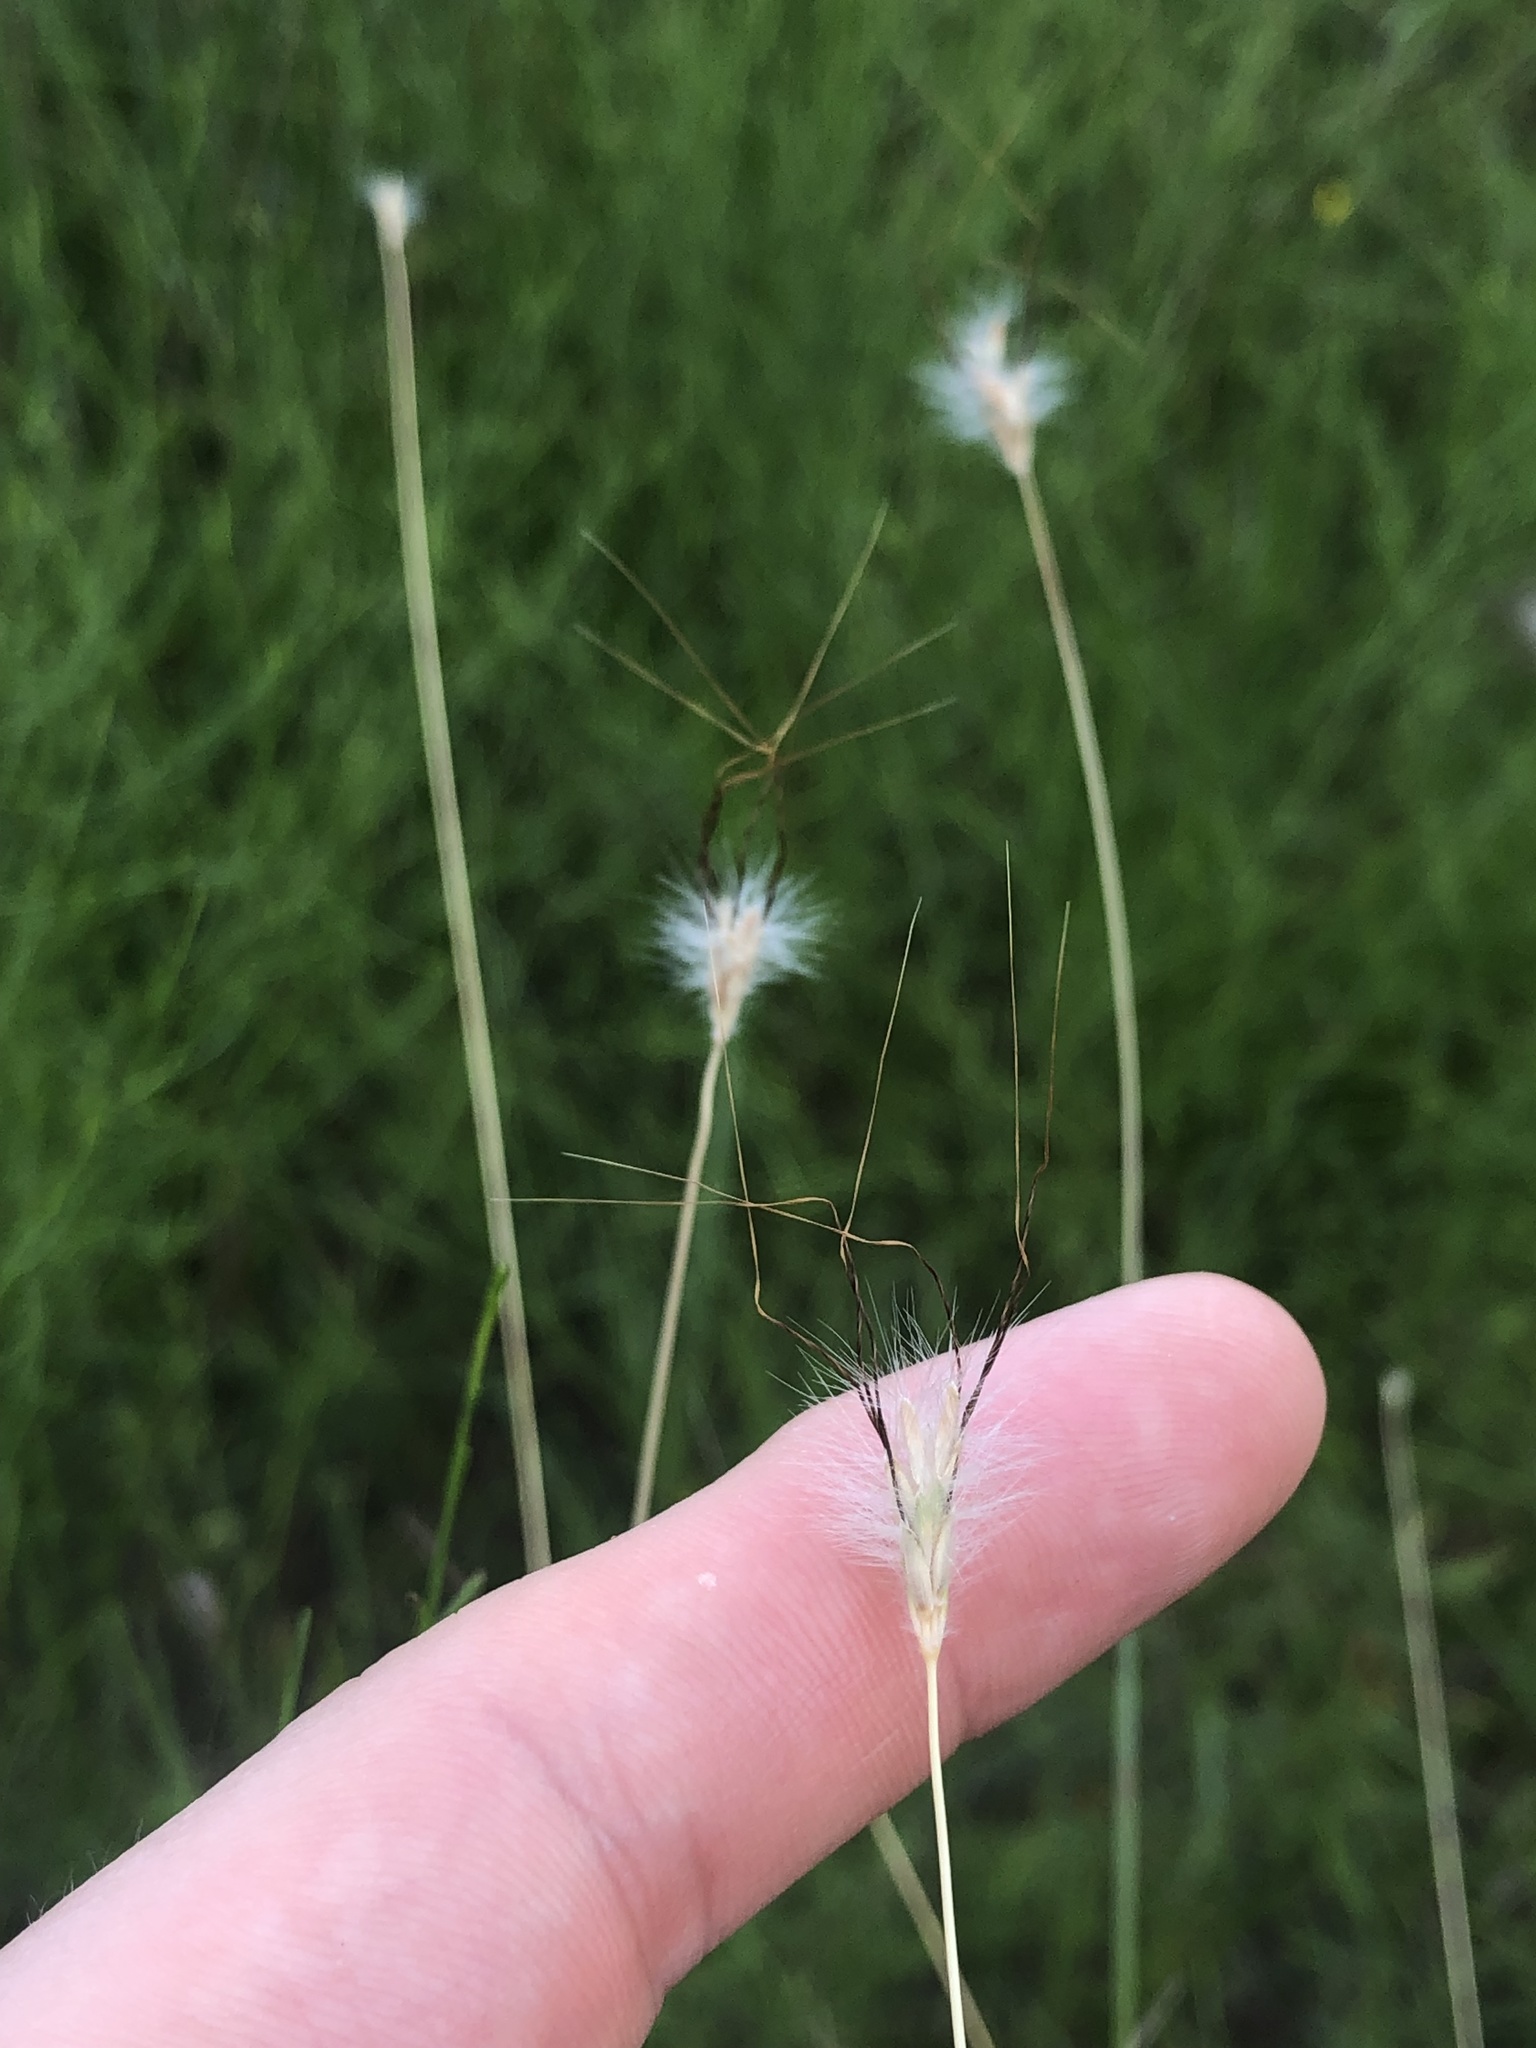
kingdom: Plantae
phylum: Tracheophyta
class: Liliopsida
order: Poales
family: Poaceae
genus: Dichanthium
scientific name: Dichanthium sericeum
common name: Silky bluestem
